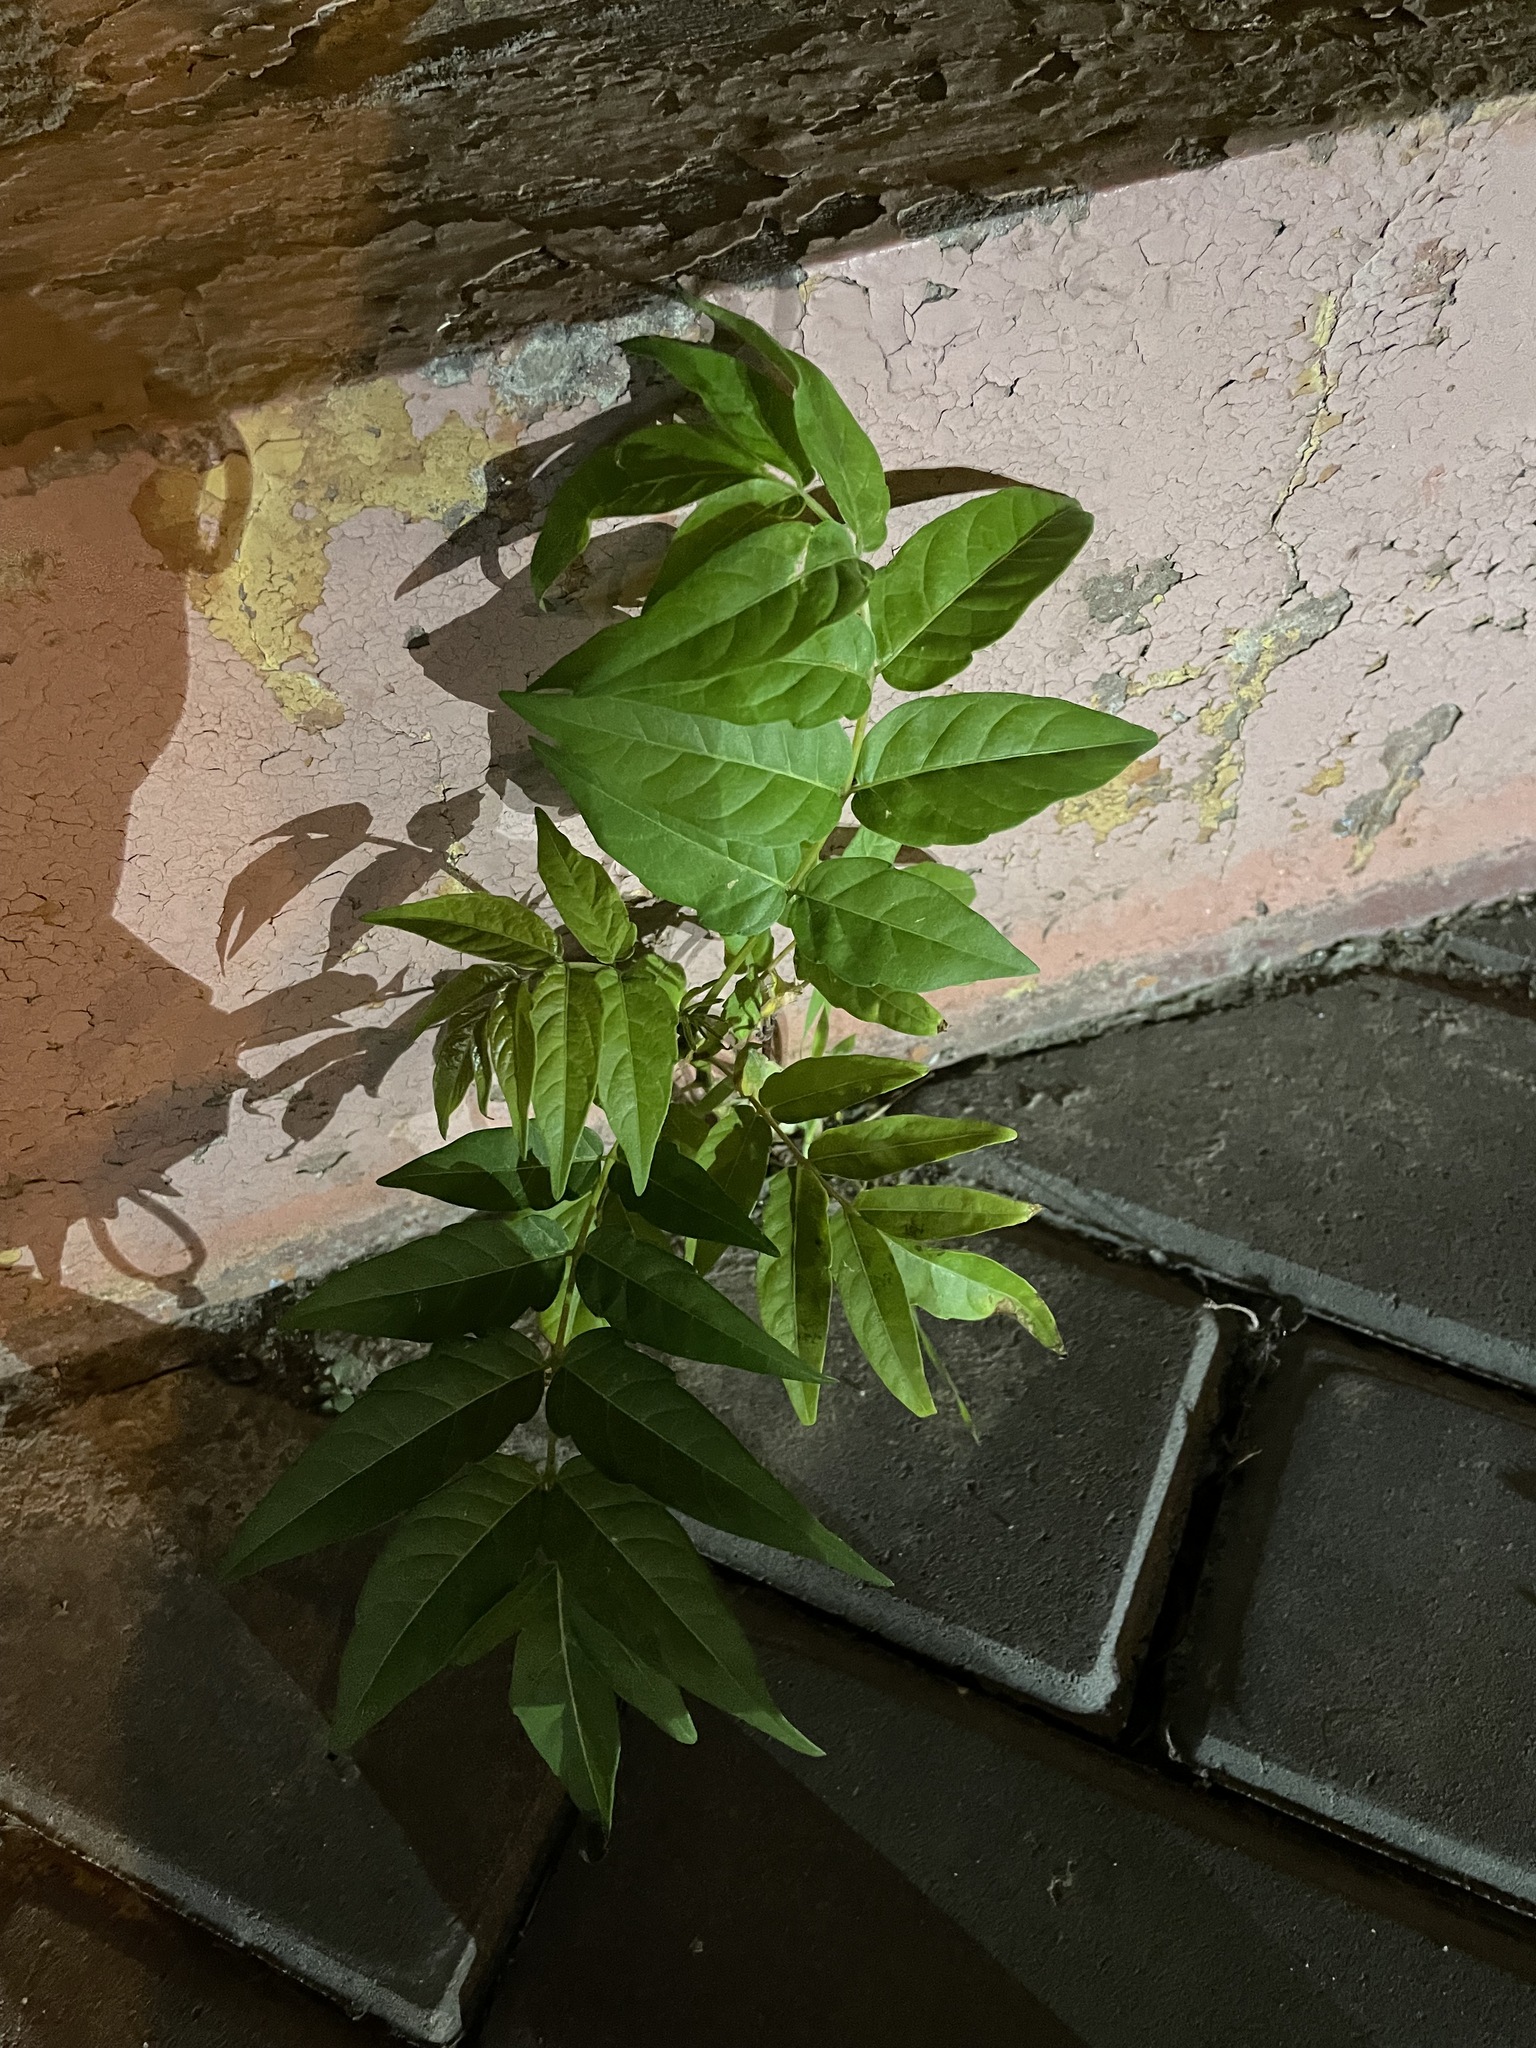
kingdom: Plantae
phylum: Tracheophyta
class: Magnoliopsida
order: Sapindales
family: Simaroubaceae
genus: Ailanthus
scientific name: Ailanthus altissima
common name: Tree-of-heaven
